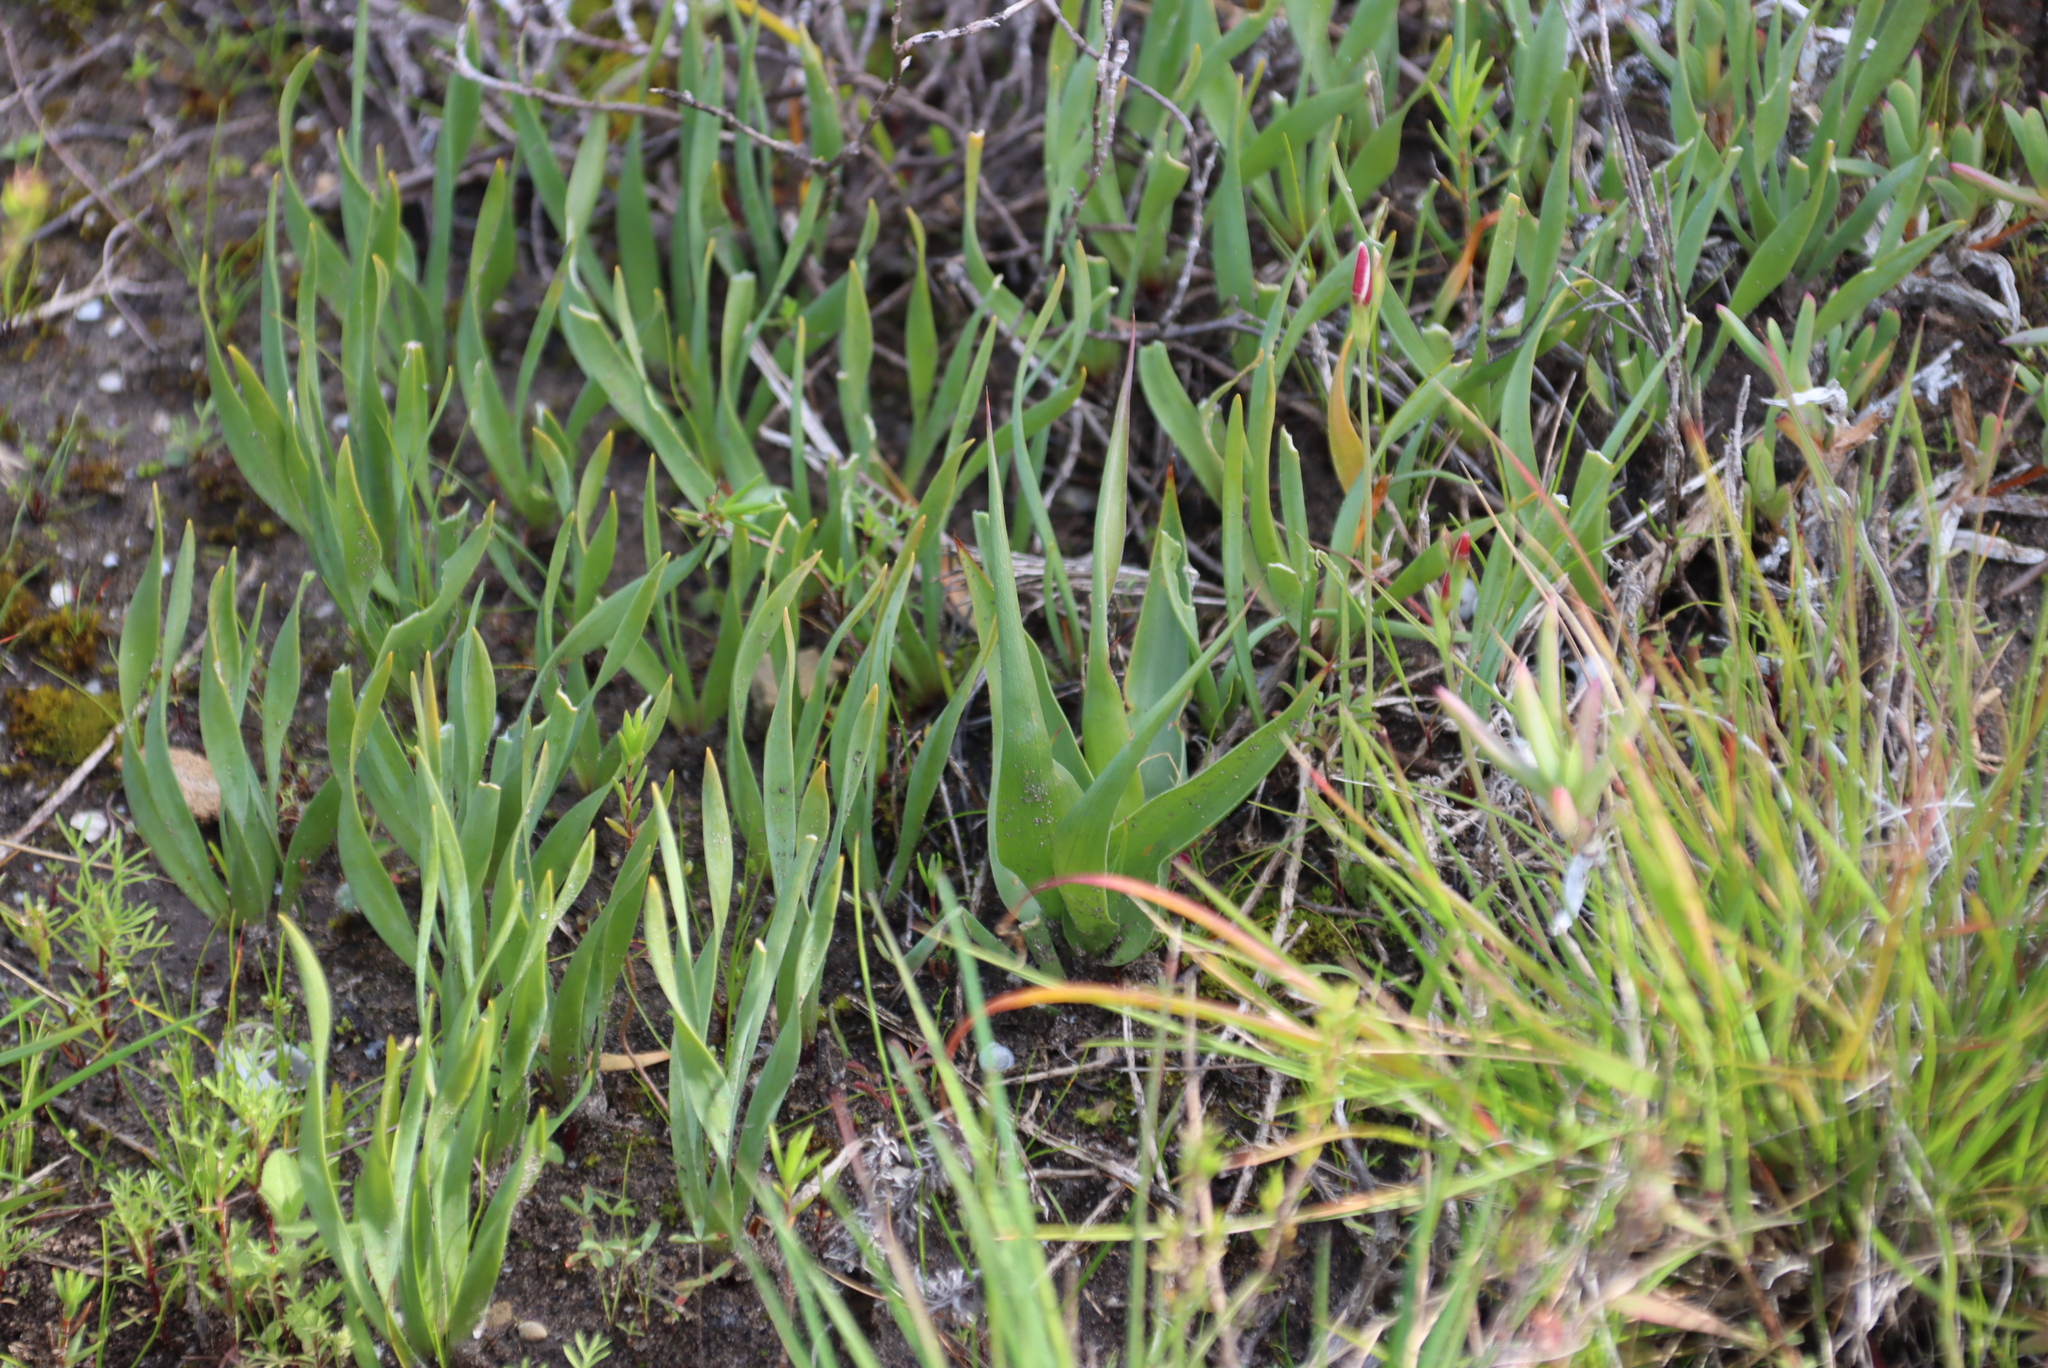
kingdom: Plantae
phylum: Tracheophyta
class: Liliopsida
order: Asparagales
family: Asparagaceae
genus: Fusifilum
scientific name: Fusifilum physodes
